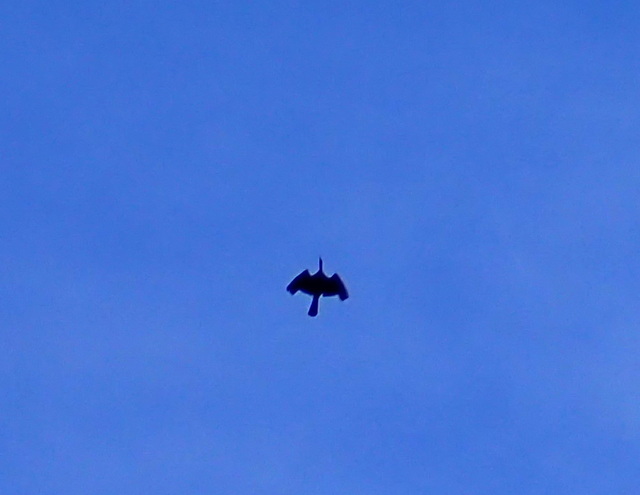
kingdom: Animalia
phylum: Chordata
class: Aves
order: Suliformes
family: Phalacrocoracidae
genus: Phalacrocorax
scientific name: Phalacrocorax auritus
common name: Double-crested cormorant
